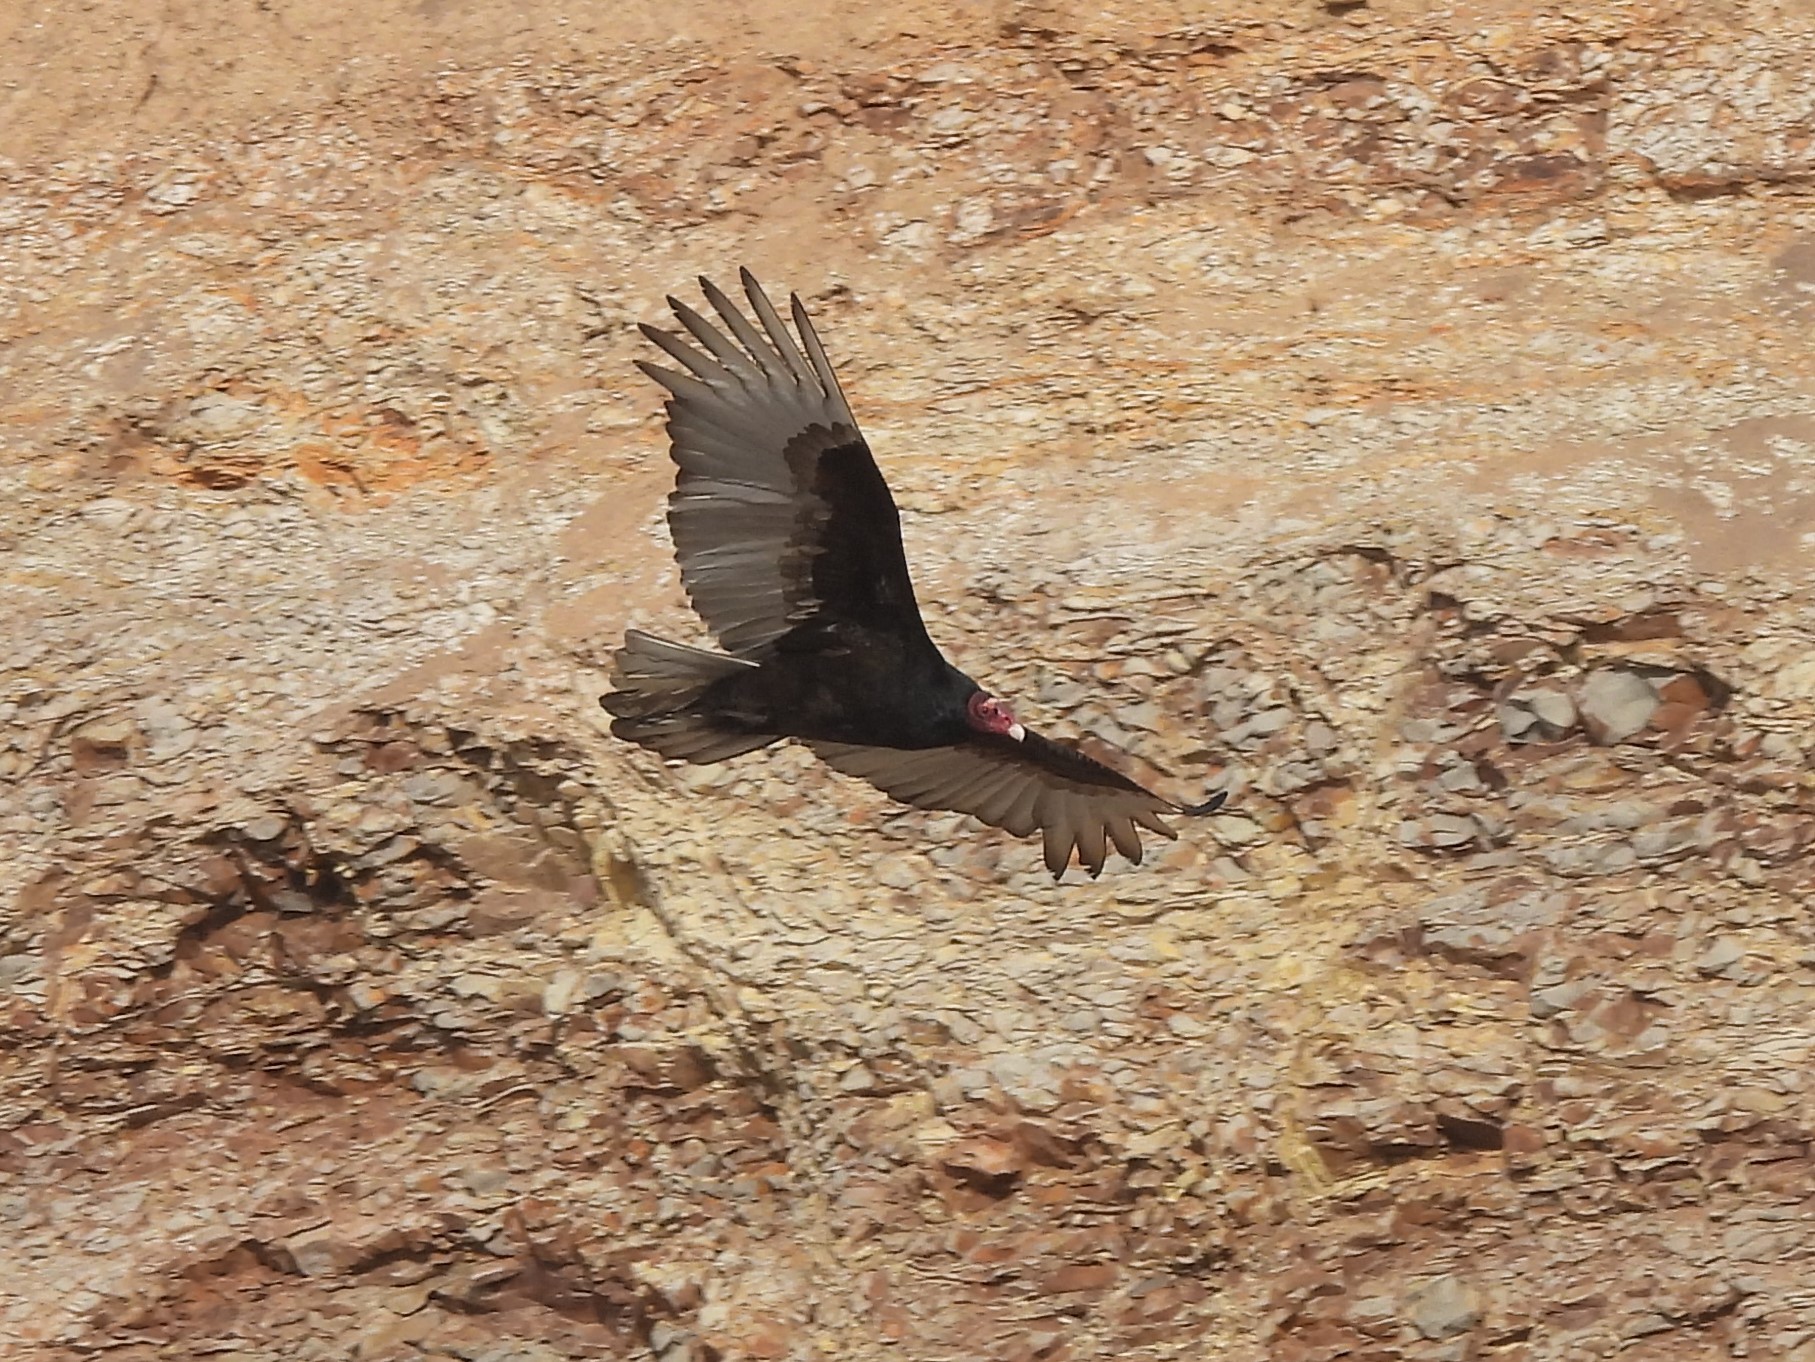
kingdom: Animalia
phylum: Chordata
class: Aves
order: Accipitriformes
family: Cathartidae
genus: Cathartes
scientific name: Cathartes aura
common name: Turkey vulture
